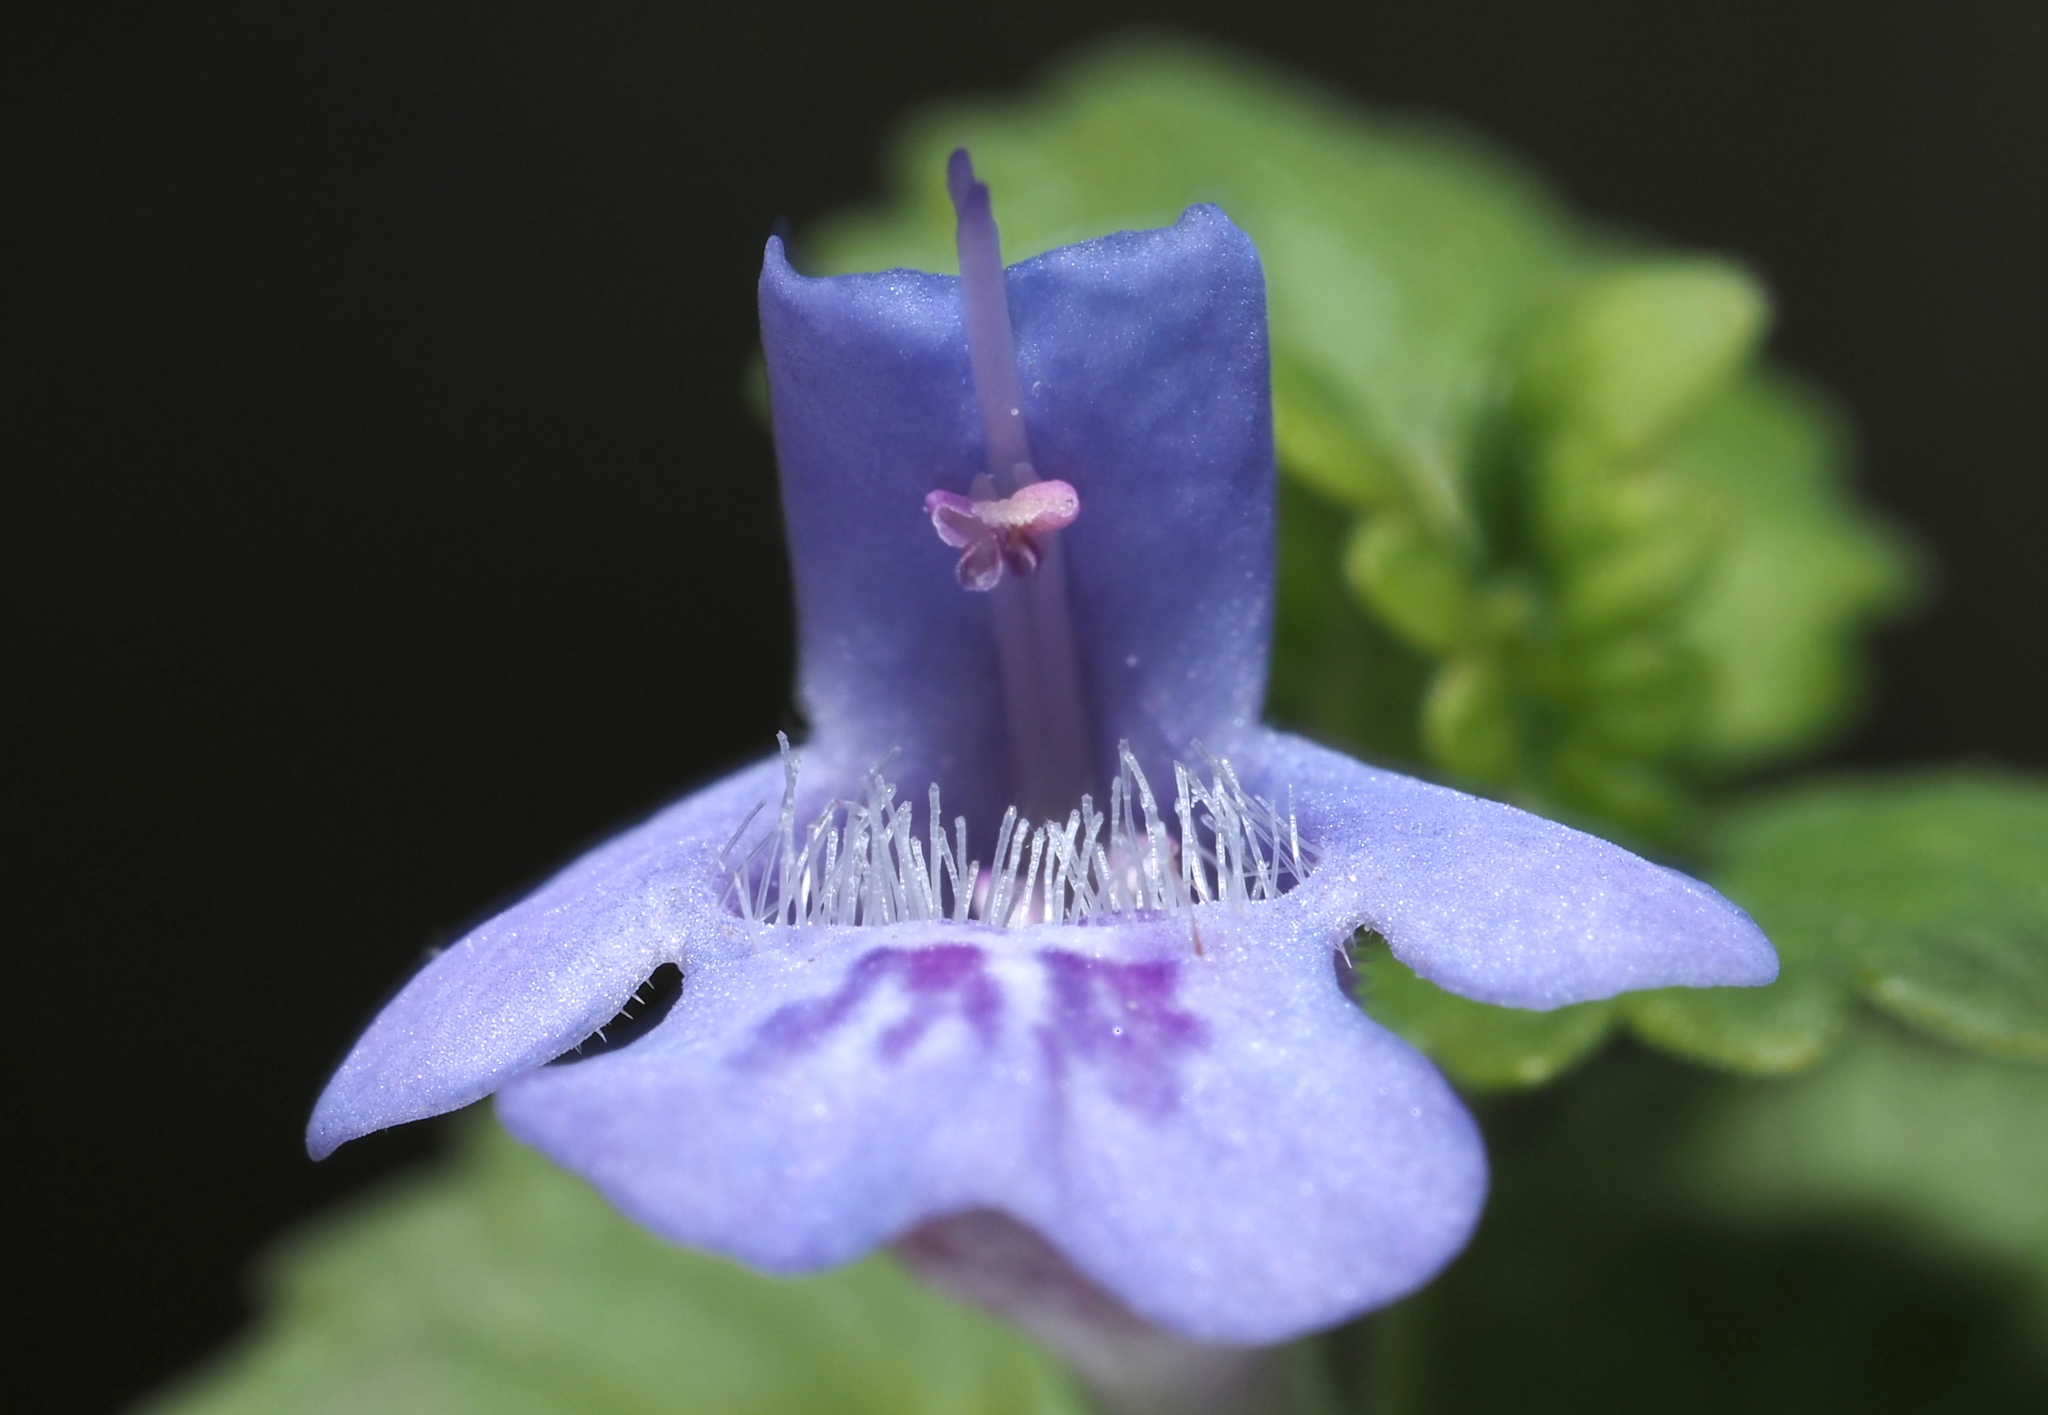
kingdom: Plantae
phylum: Tracheophyta
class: Magnoliopsida
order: Lamiales
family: Lamiaceae
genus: Glechoma
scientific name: Glechoma hederacea
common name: Ground ivy
